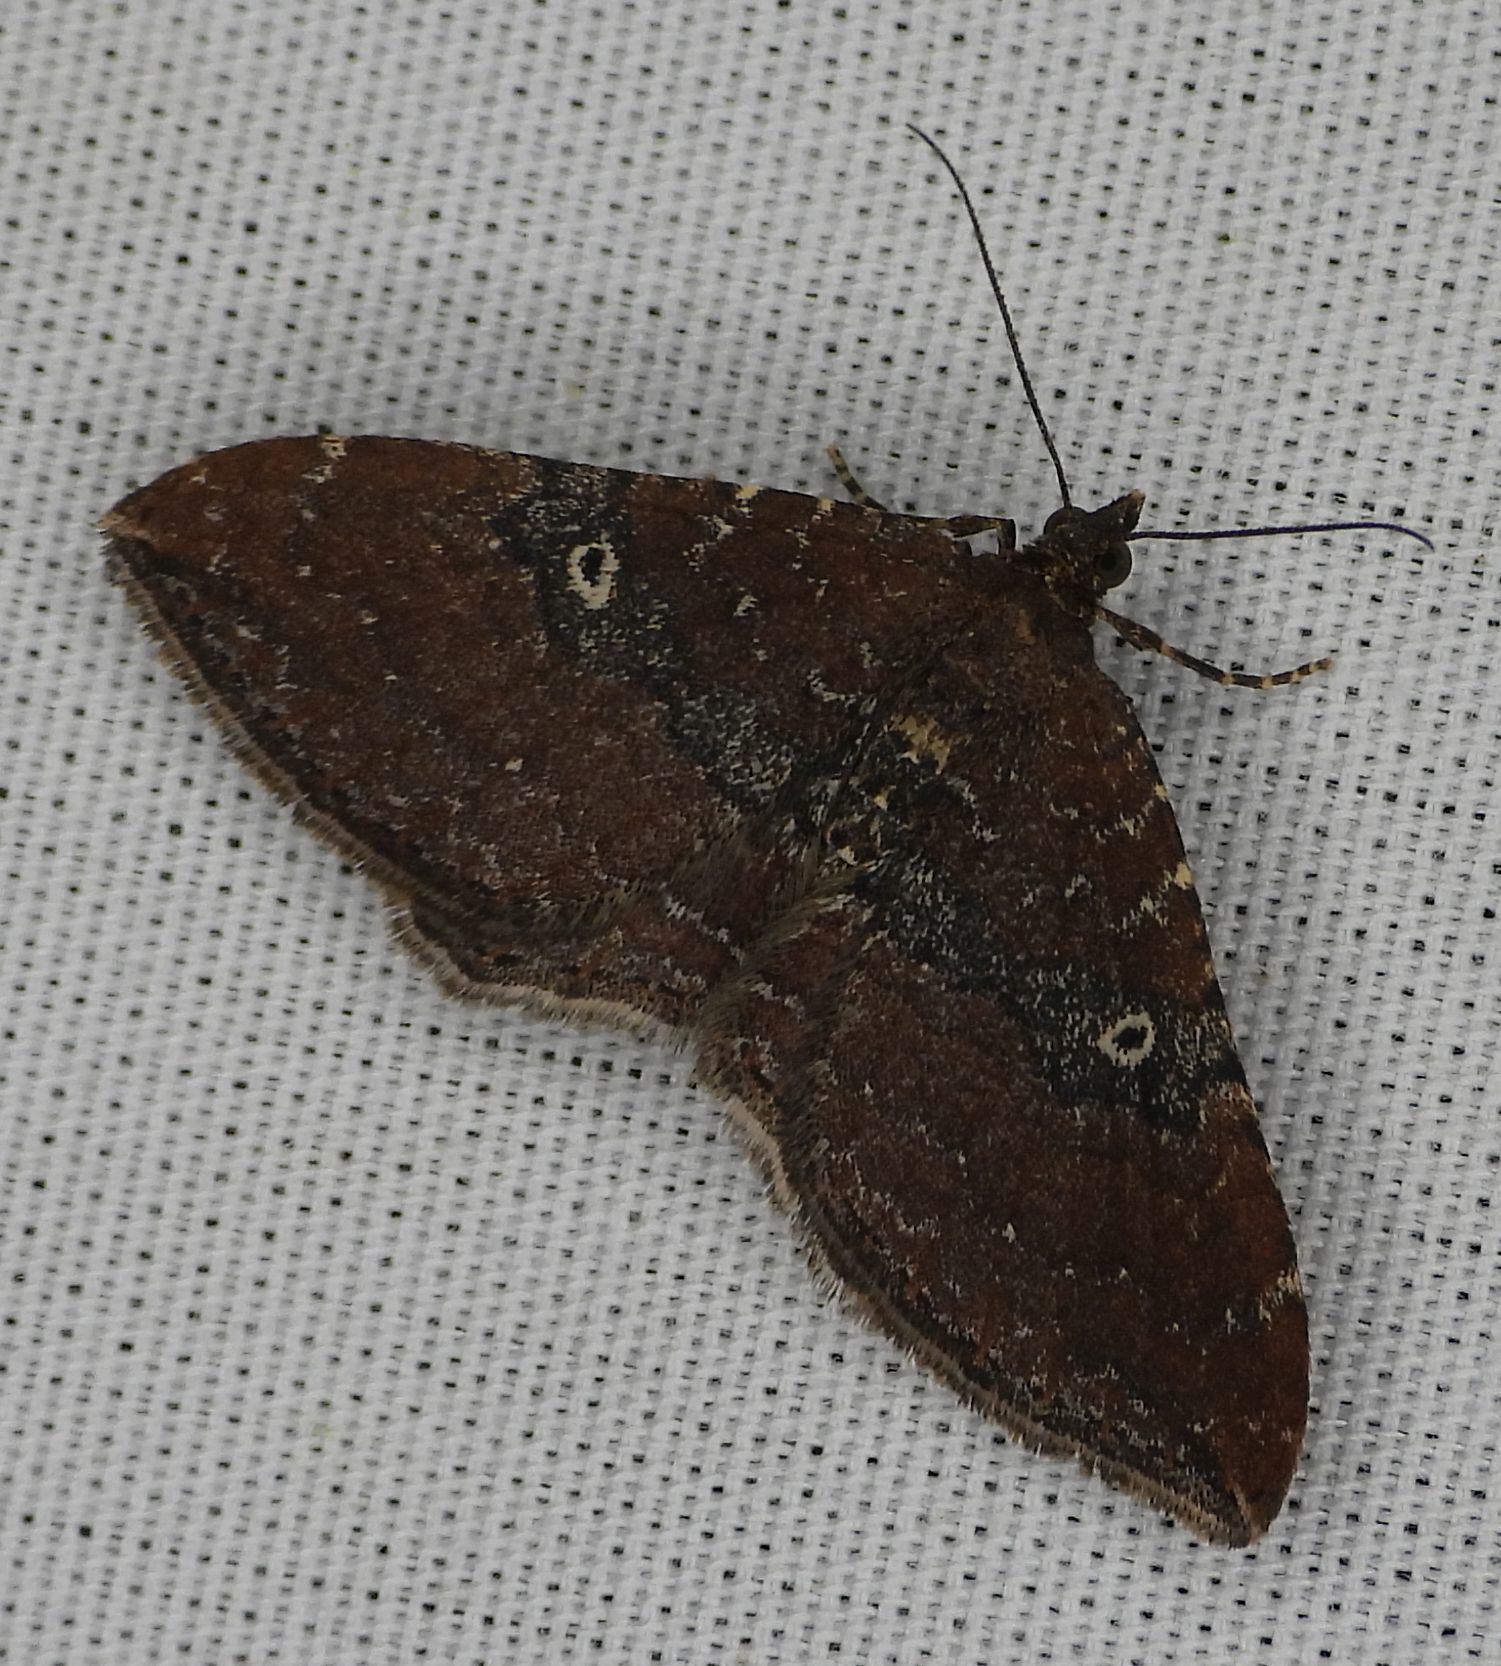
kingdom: Animalia
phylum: Arthropoda
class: Insecta
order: Lepidoptera
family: Geometridae
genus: Orthonama
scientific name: Orthonama obstipata
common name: The gem
